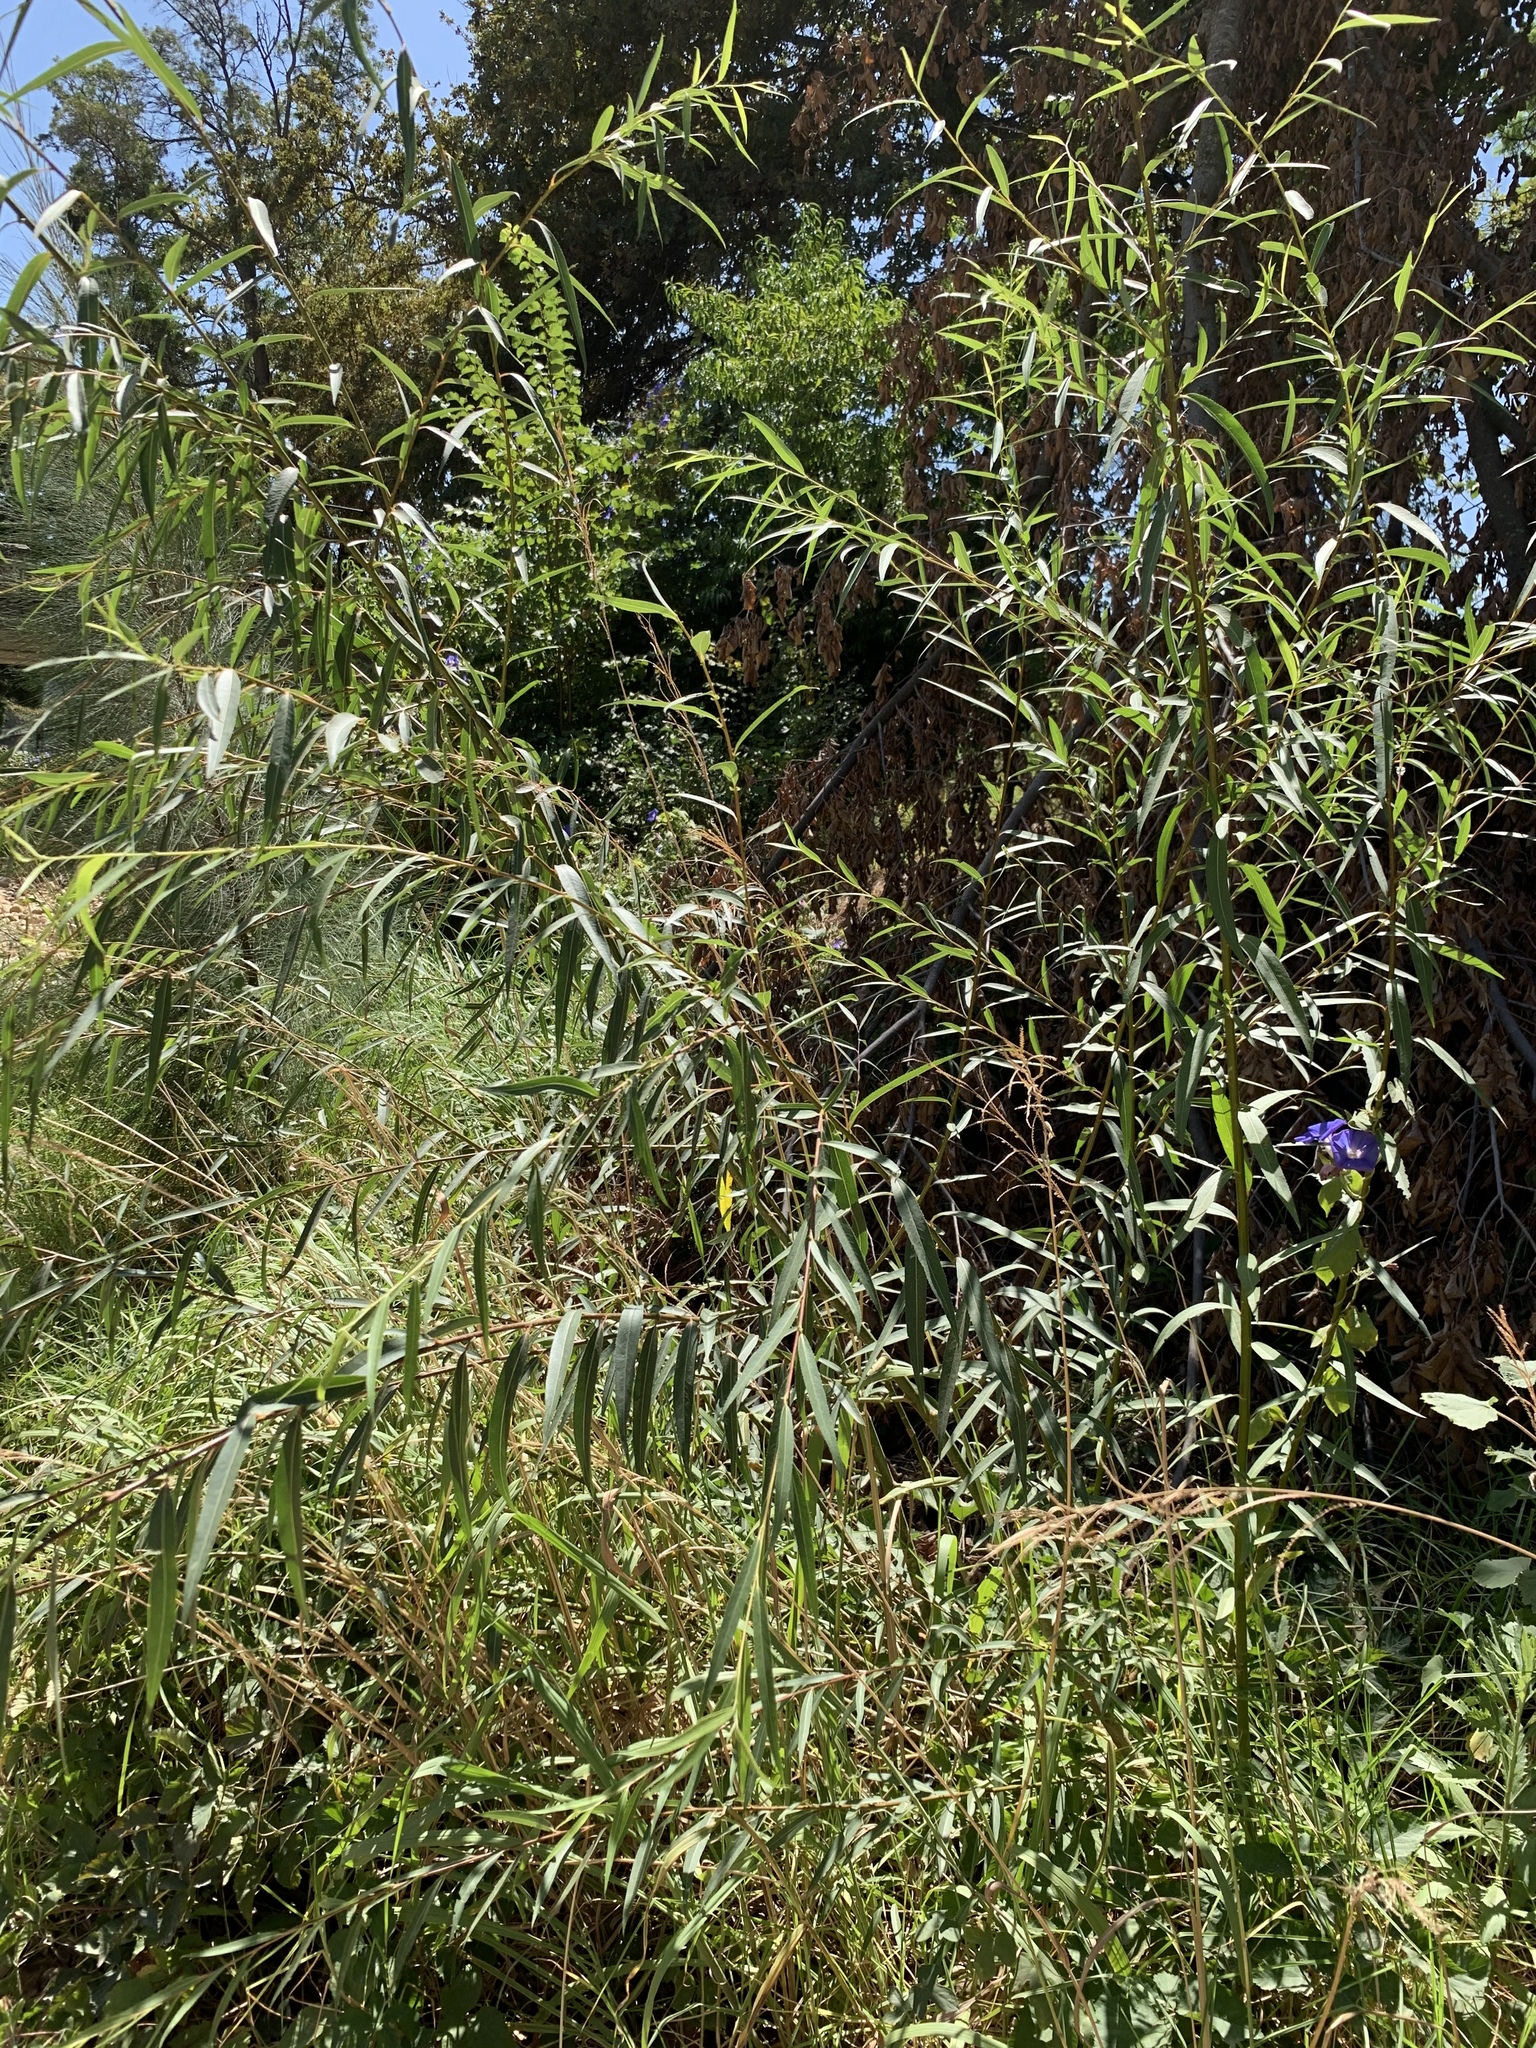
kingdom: Plantae
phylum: Tracheophyta
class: Magnoliopsida
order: Malpighiales
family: Salicaceae
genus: Salix
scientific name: Salix mucronata
